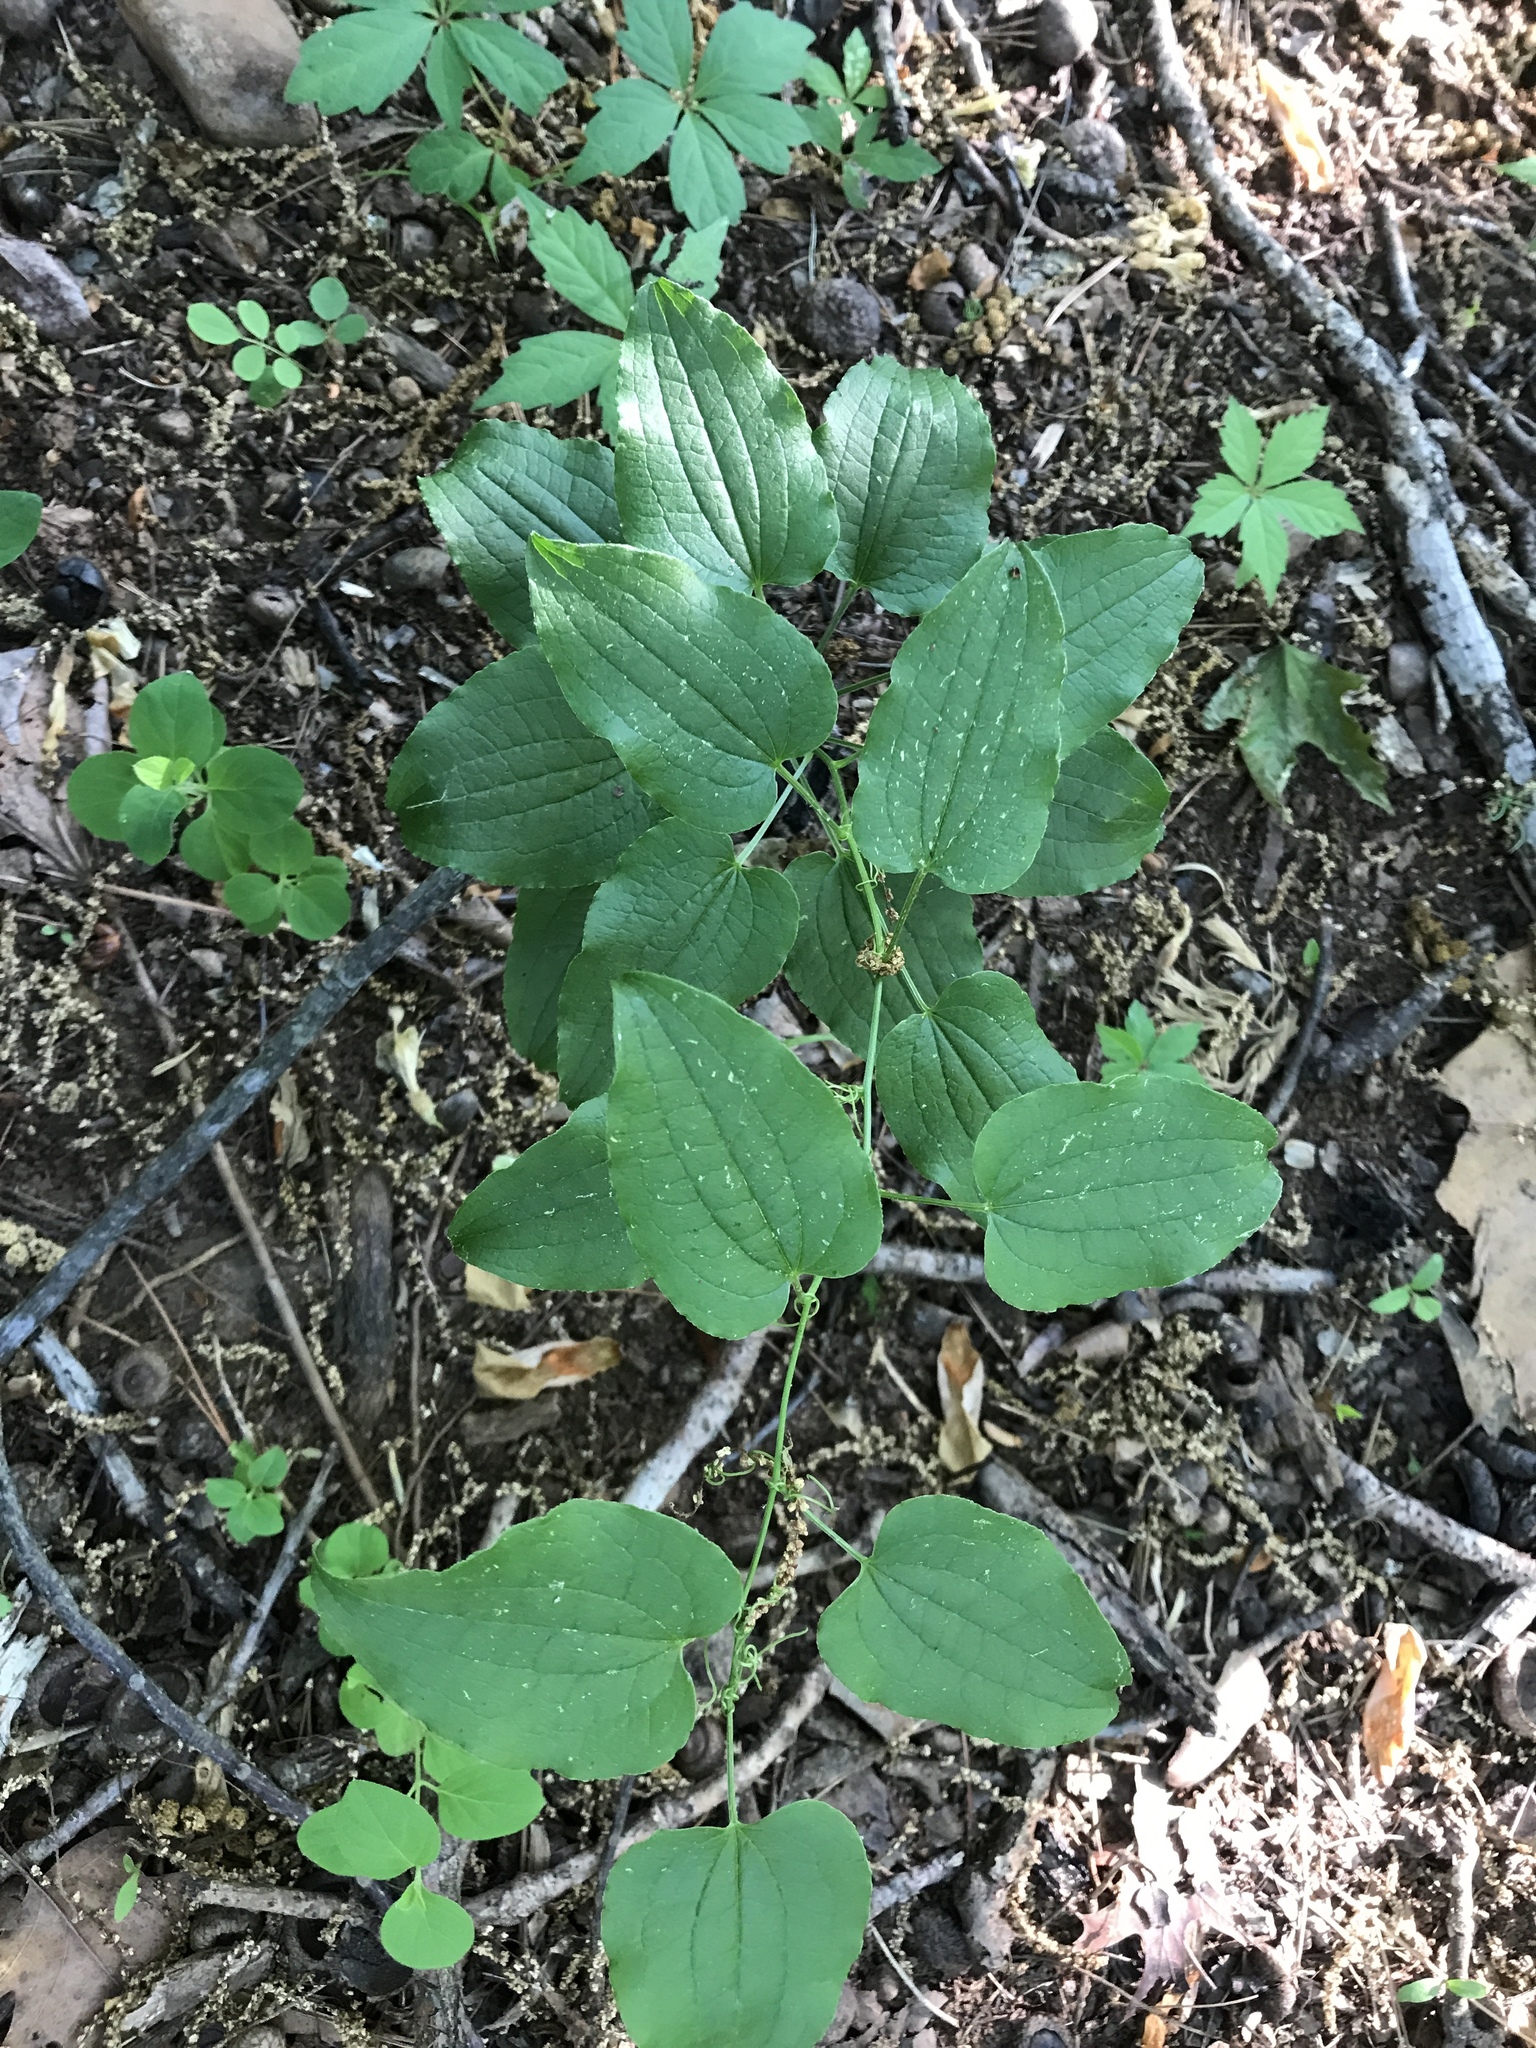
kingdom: Plantae
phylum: Tracheophyta
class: Liliopsida
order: Liliales
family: Smilacaceae
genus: Smilax
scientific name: Smilax pulverulenta
